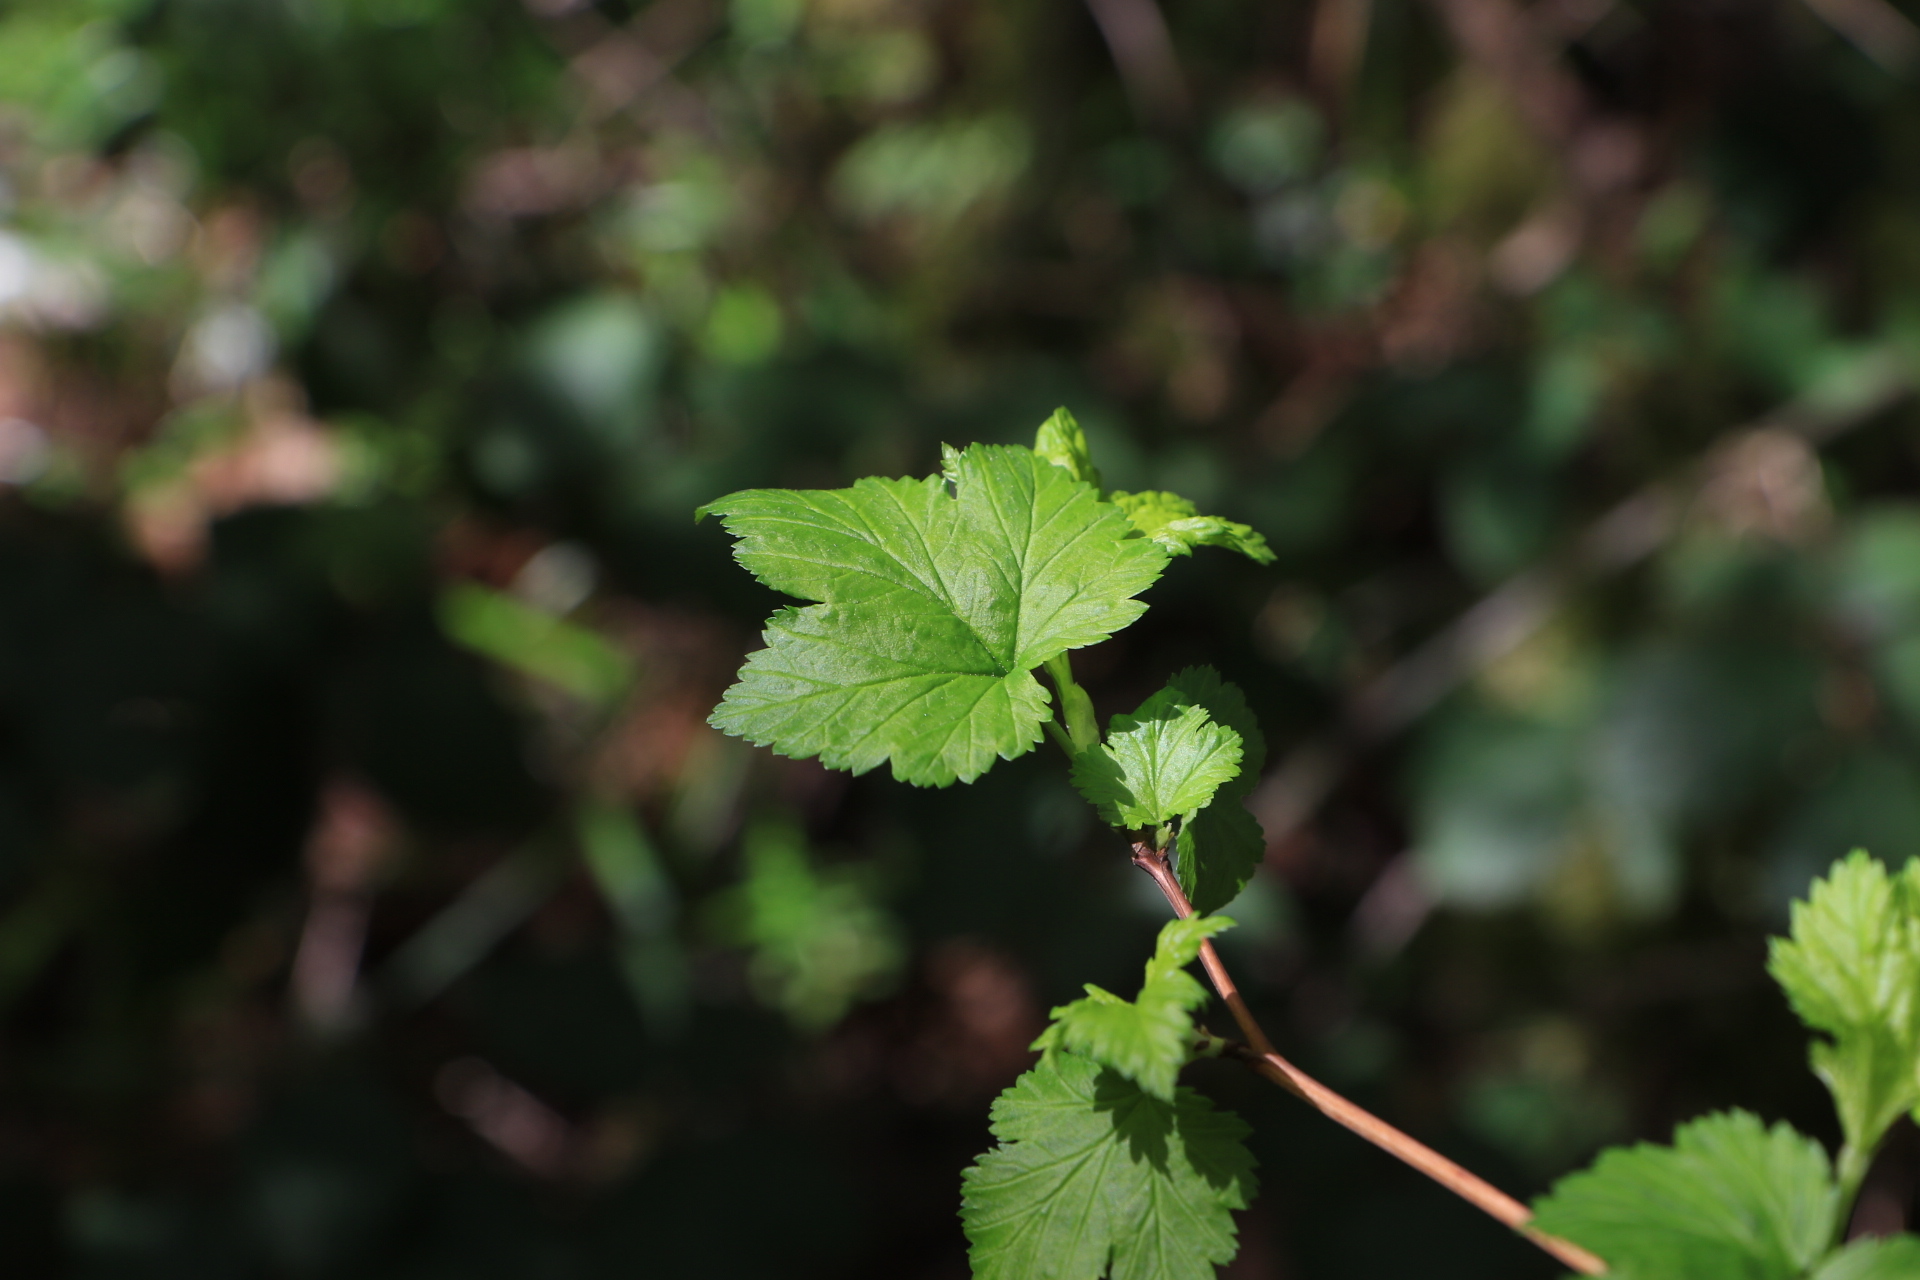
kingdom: Plantae
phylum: Tracheophyta
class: Magnoliopsida
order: Rosales
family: Rosaceae
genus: Physocarpus
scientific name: Physocarpus capitatus
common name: Pacific ninebark
